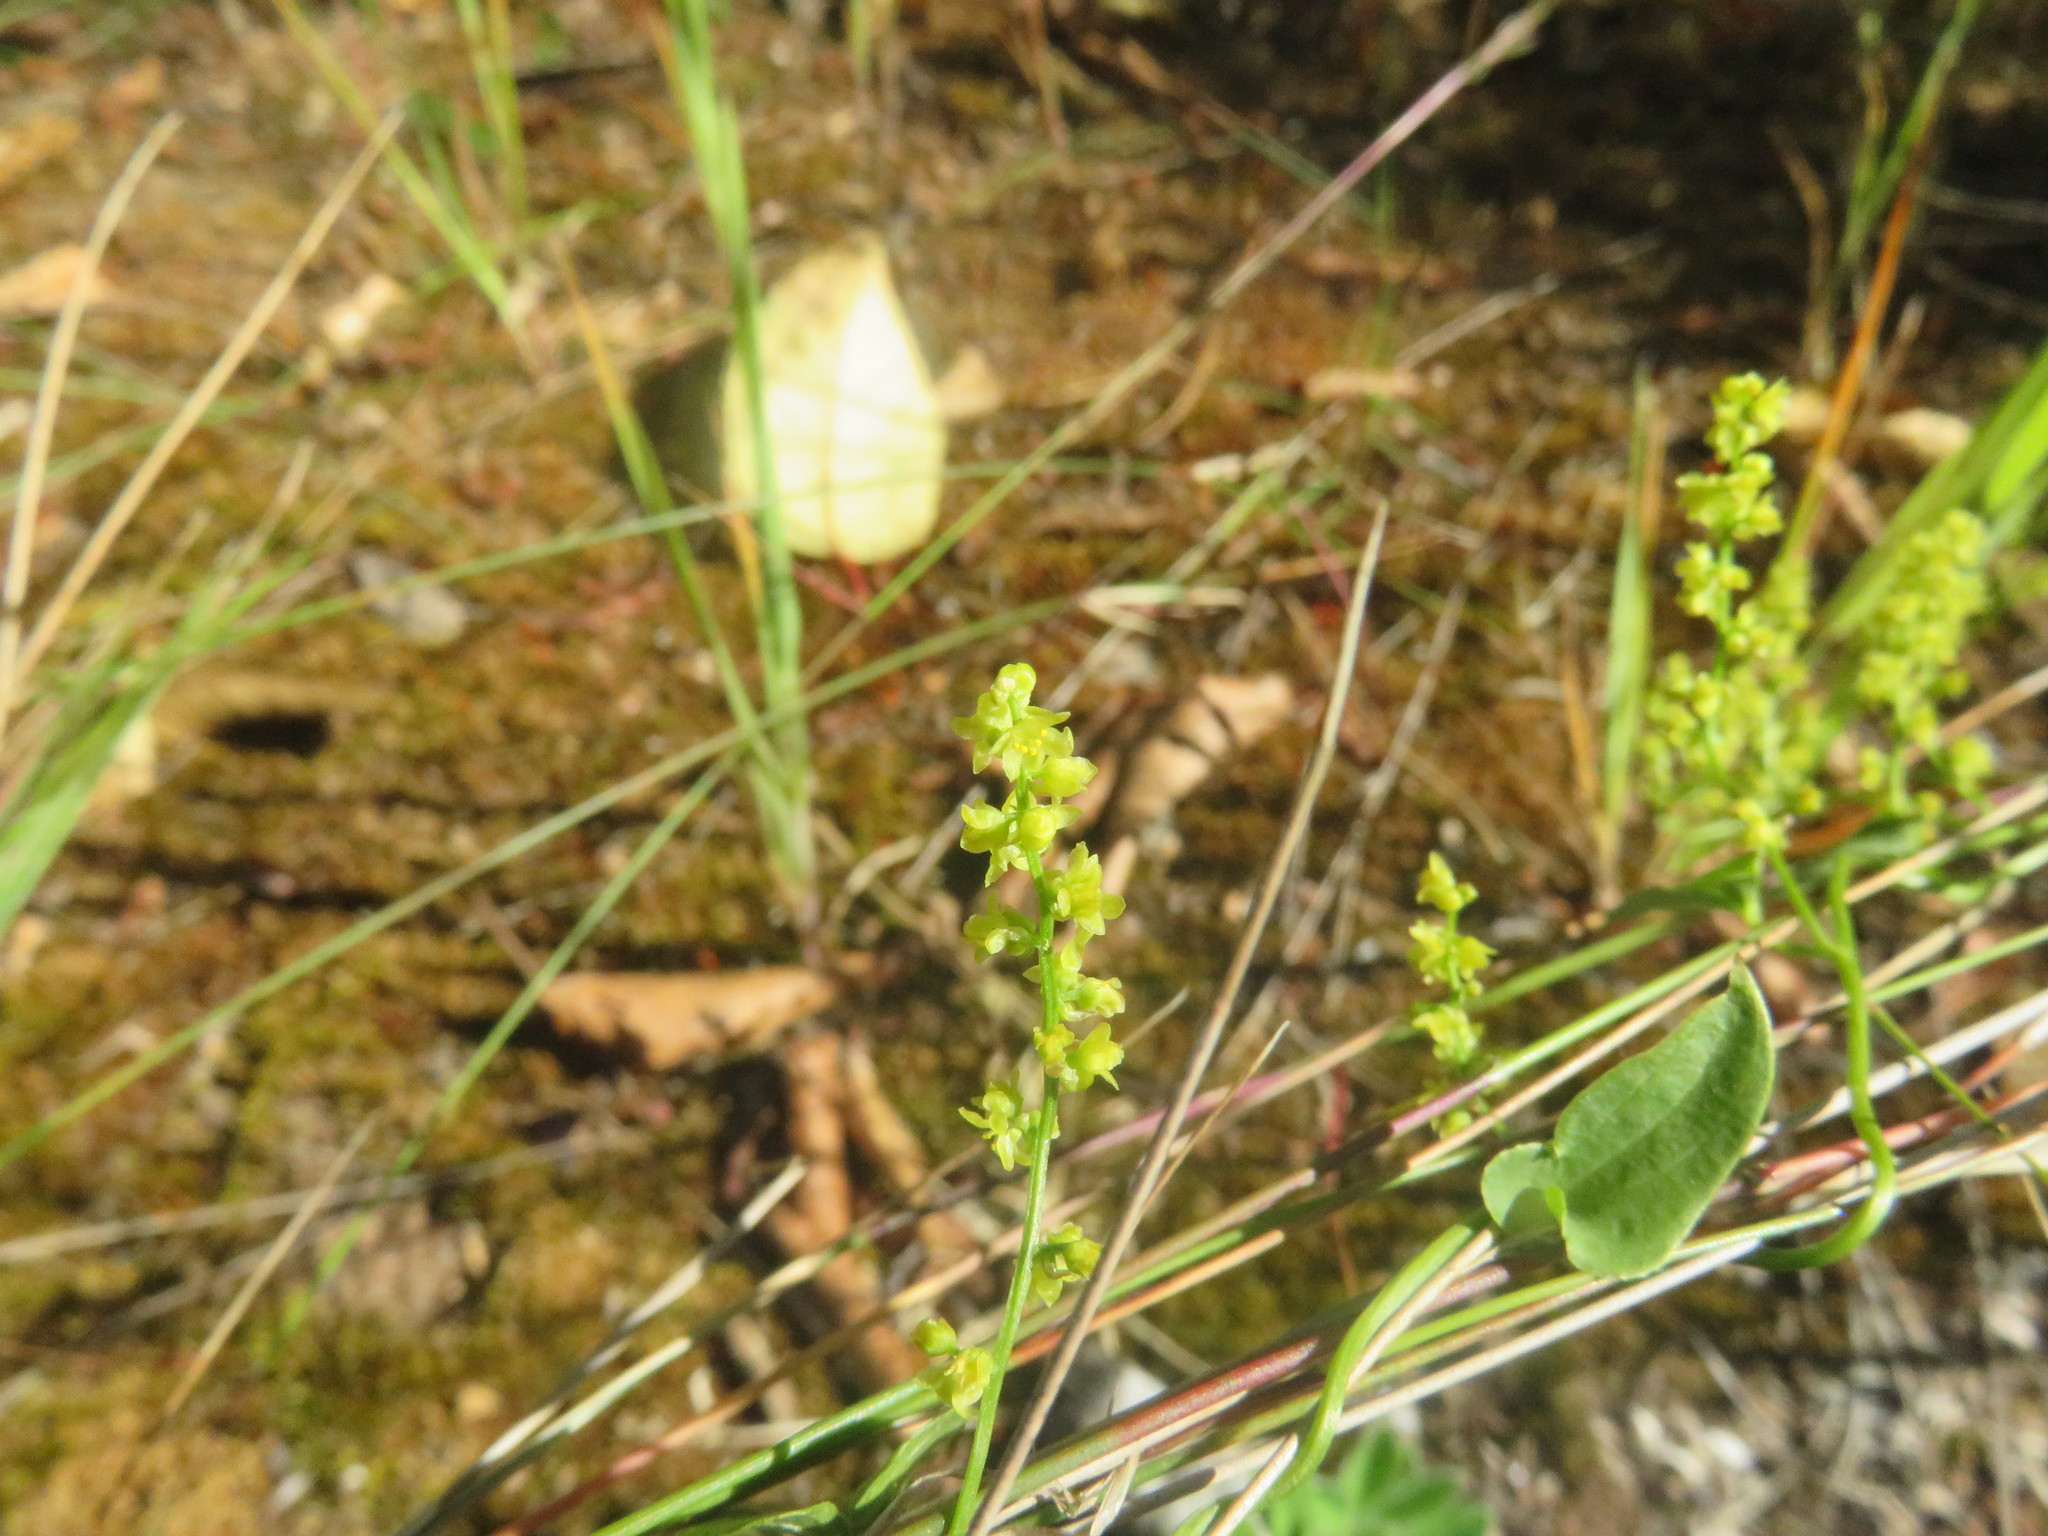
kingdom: Plantae
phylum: Tracheophyta
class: Liliopsida
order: Dioscoreales
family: Dioscoreaceae
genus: Dioscorea
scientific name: Dioscorea humifusa
